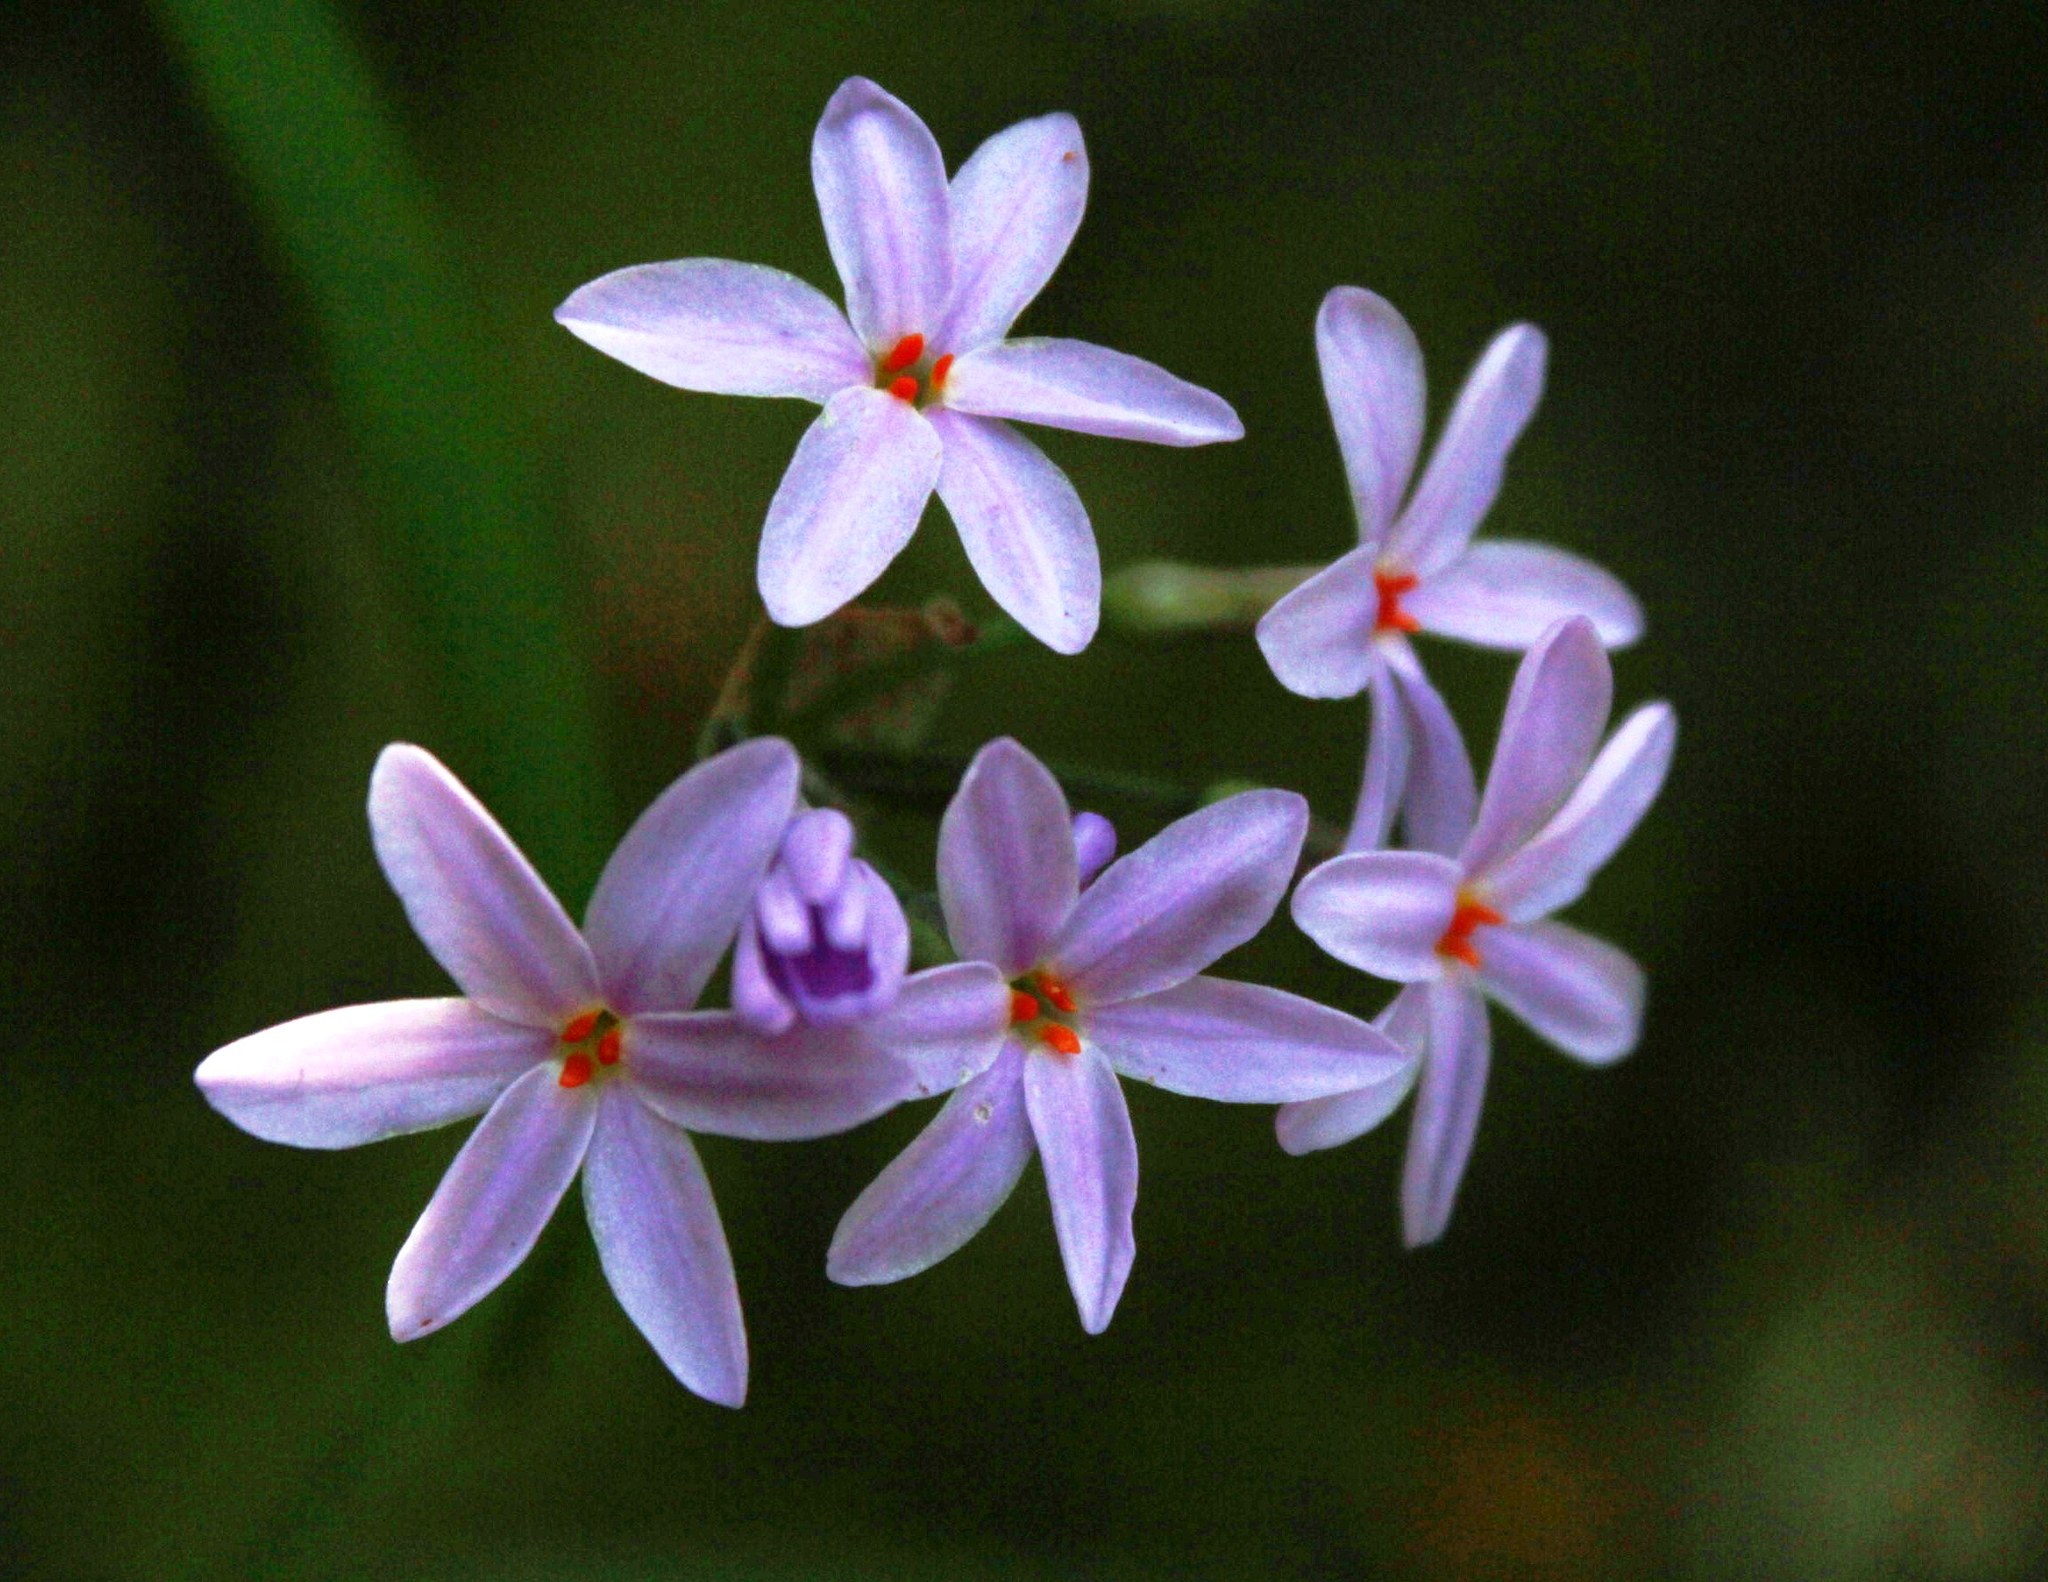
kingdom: Plantae
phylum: Tracheophyta
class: Liliopsida
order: Asparagales
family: Amaryllidaceae
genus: Tulbaghia
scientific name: Tulbaghia maritima
